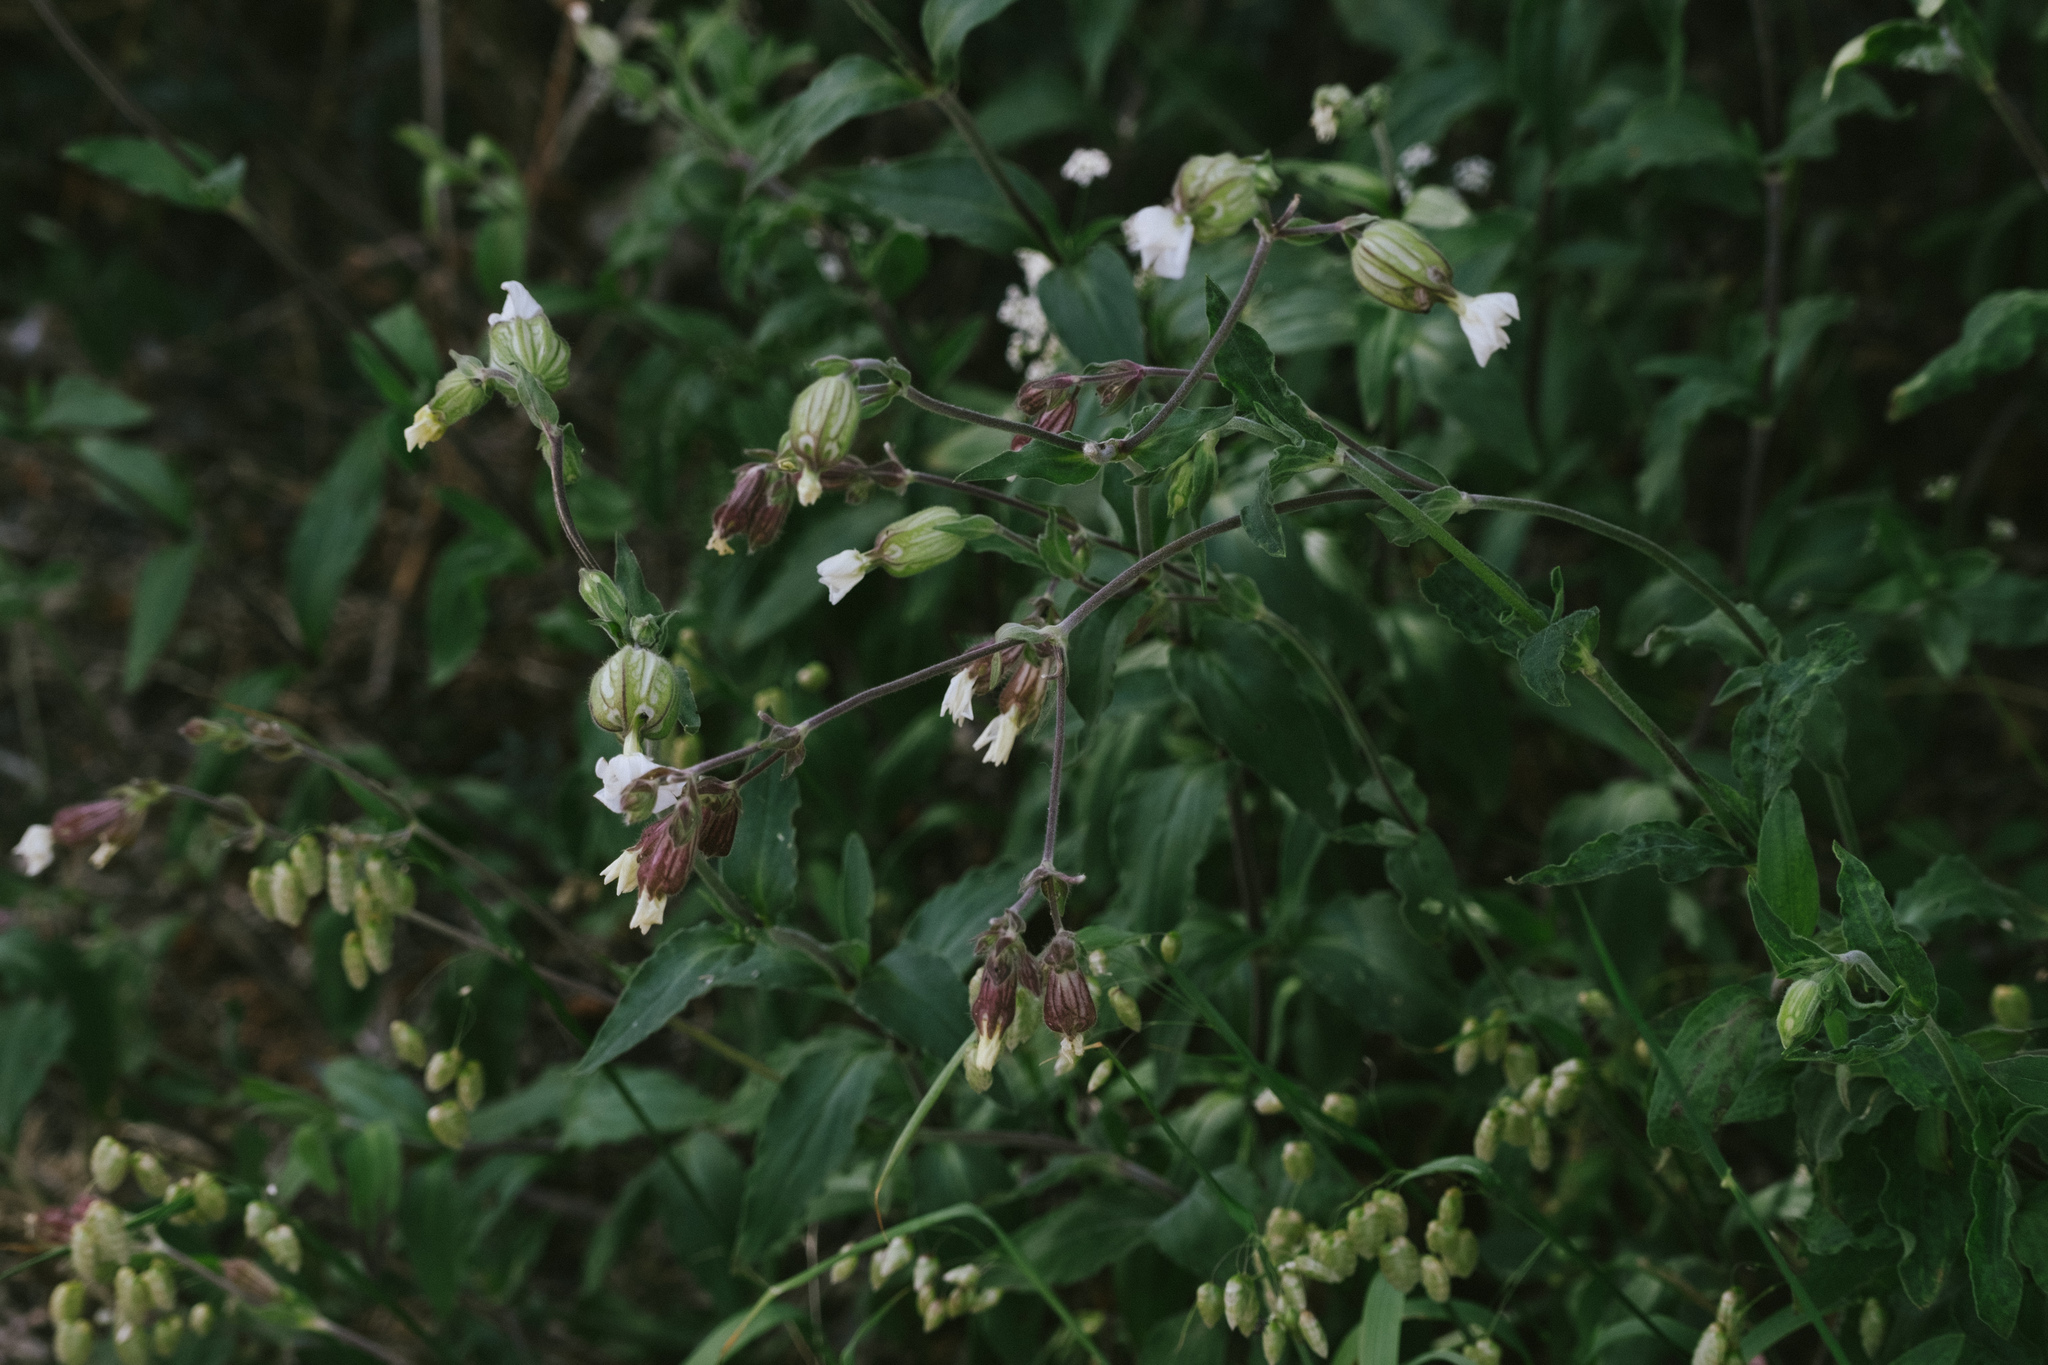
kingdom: Plantae
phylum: Tracheophyta
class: Magnoliopsida
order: Caryophyllales
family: Caryophyllaceae
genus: Silene
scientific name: Silene latifolia
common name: White campion
